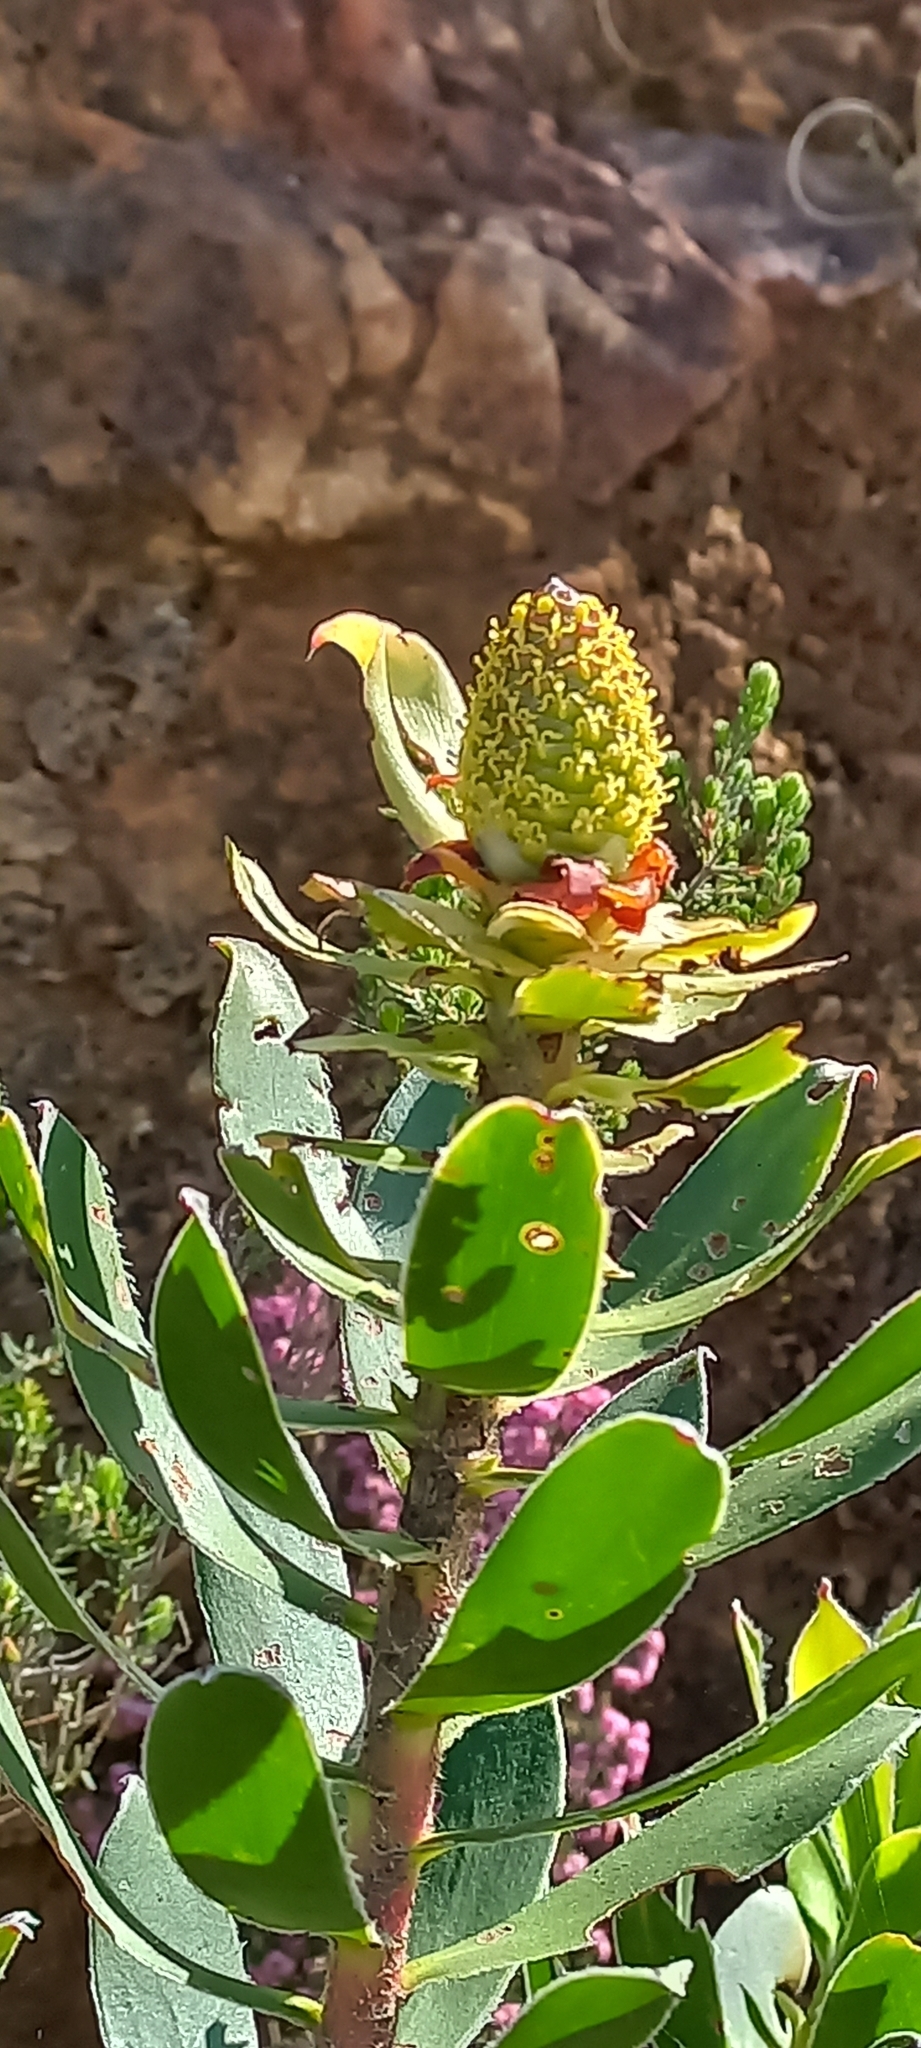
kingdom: Plantae
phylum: Tracheophyta
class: Magnoliopsida
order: Proteales
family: Proteaceae
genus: Leucadendron
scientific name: Leucadendron strobilinum
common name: Mountain rose
